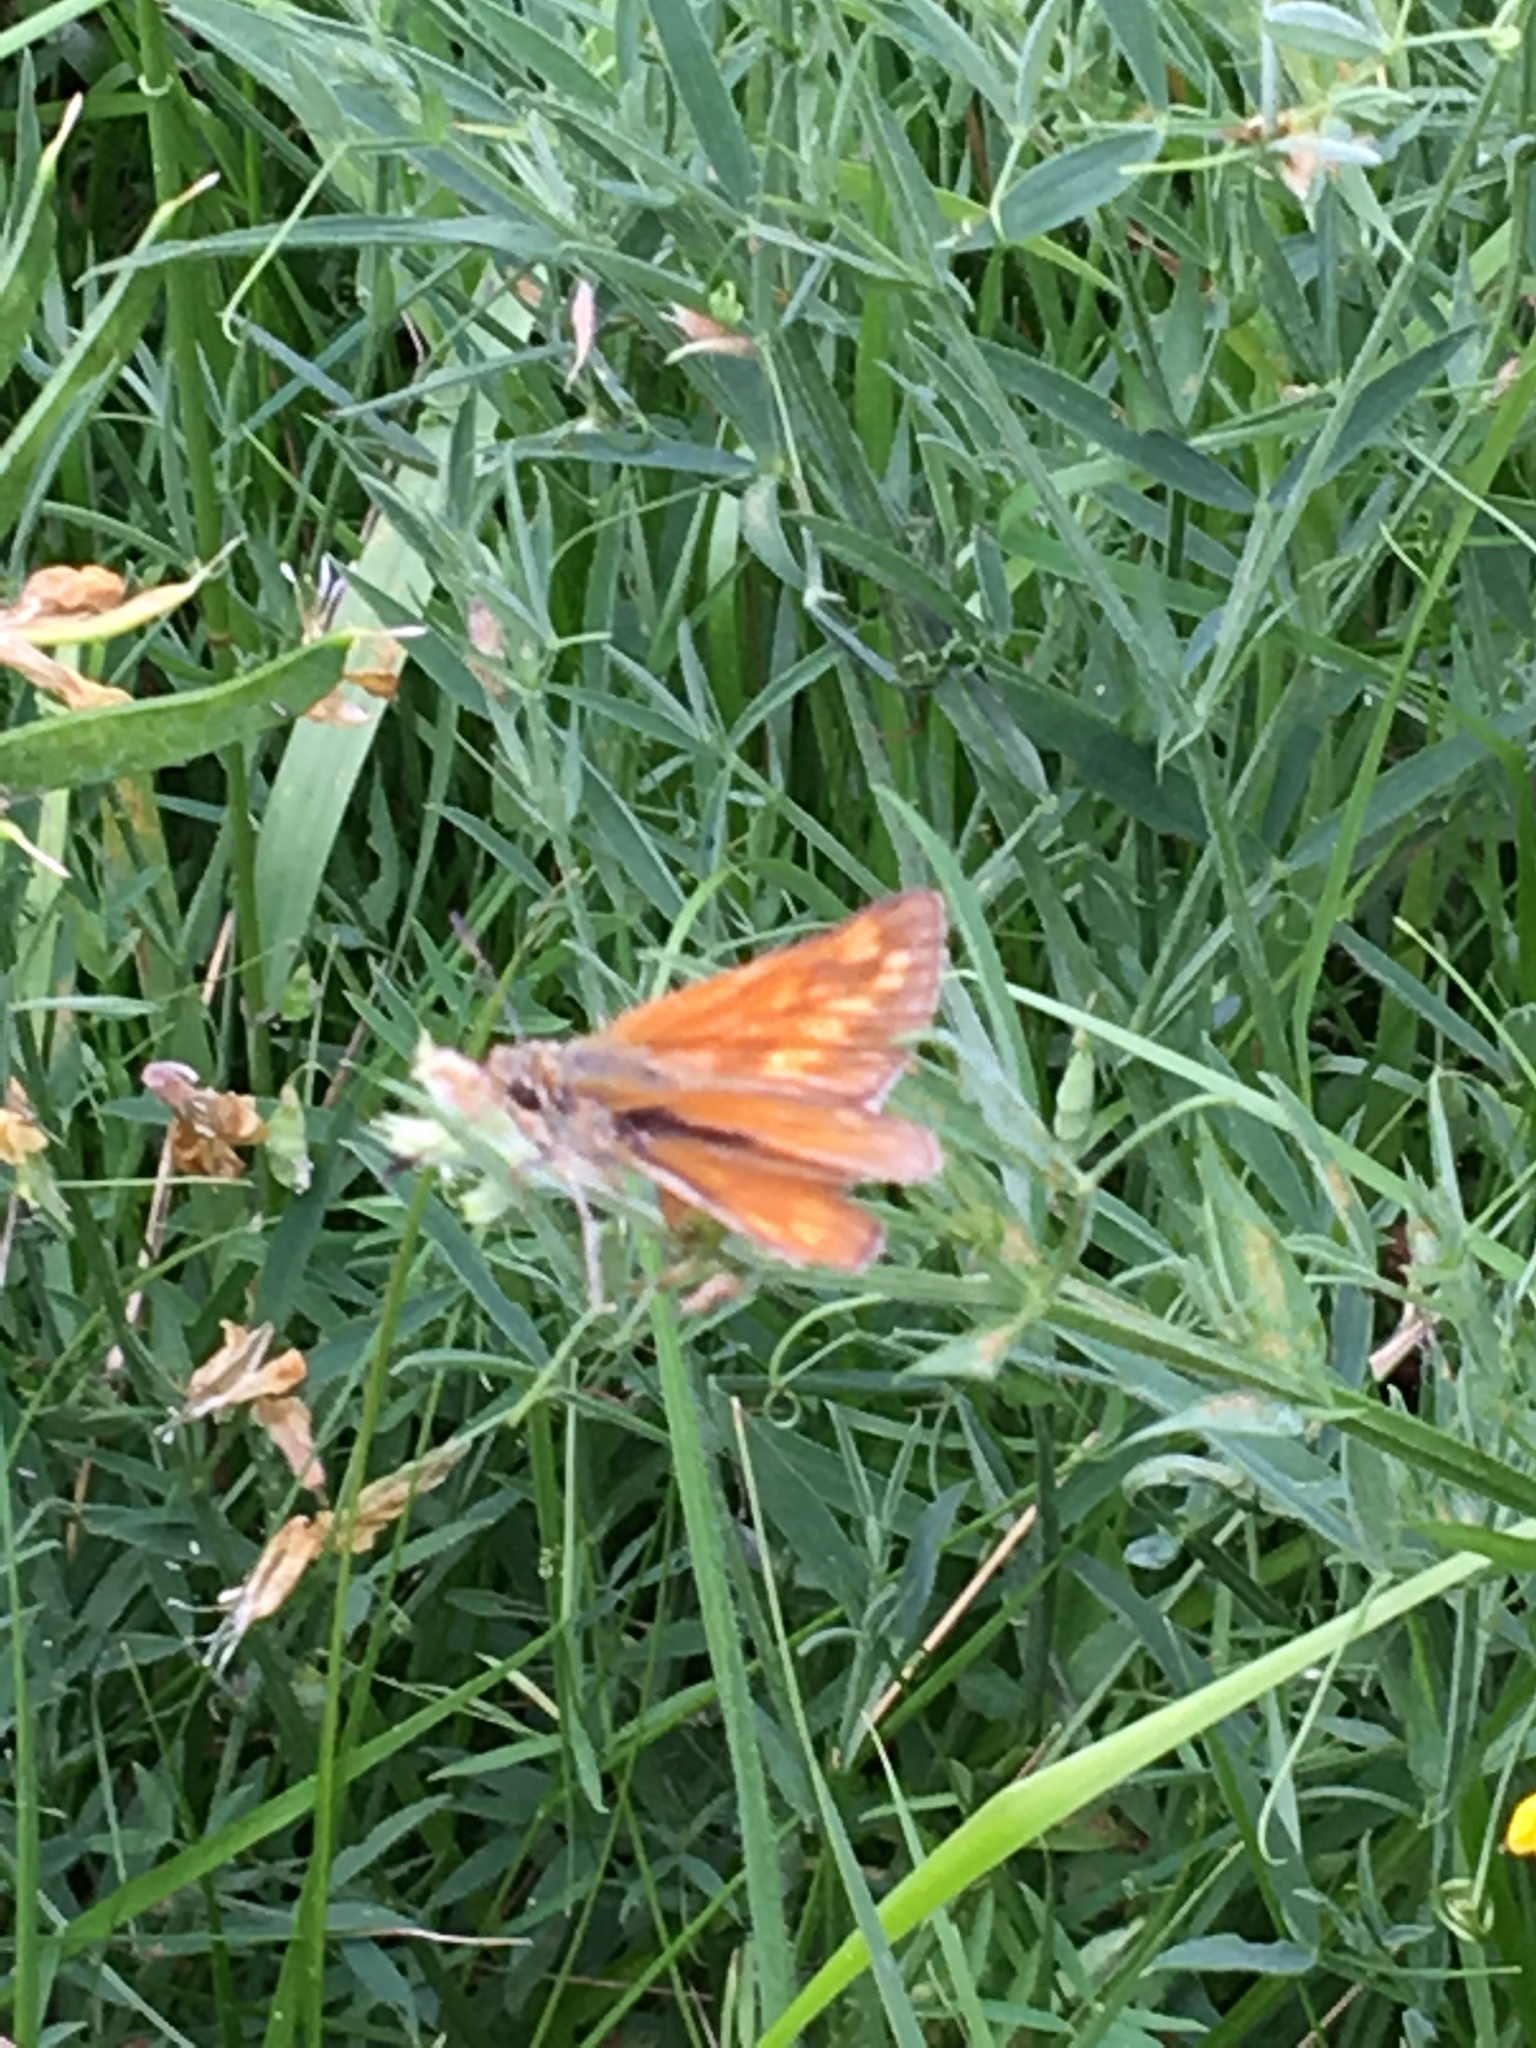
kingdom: Animalia
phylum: Arthropoda
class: Insecta
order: Lepidoptera
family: Hesperiidae
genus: Ochlodes
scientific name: Ochlodes venata
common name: Large skipper
